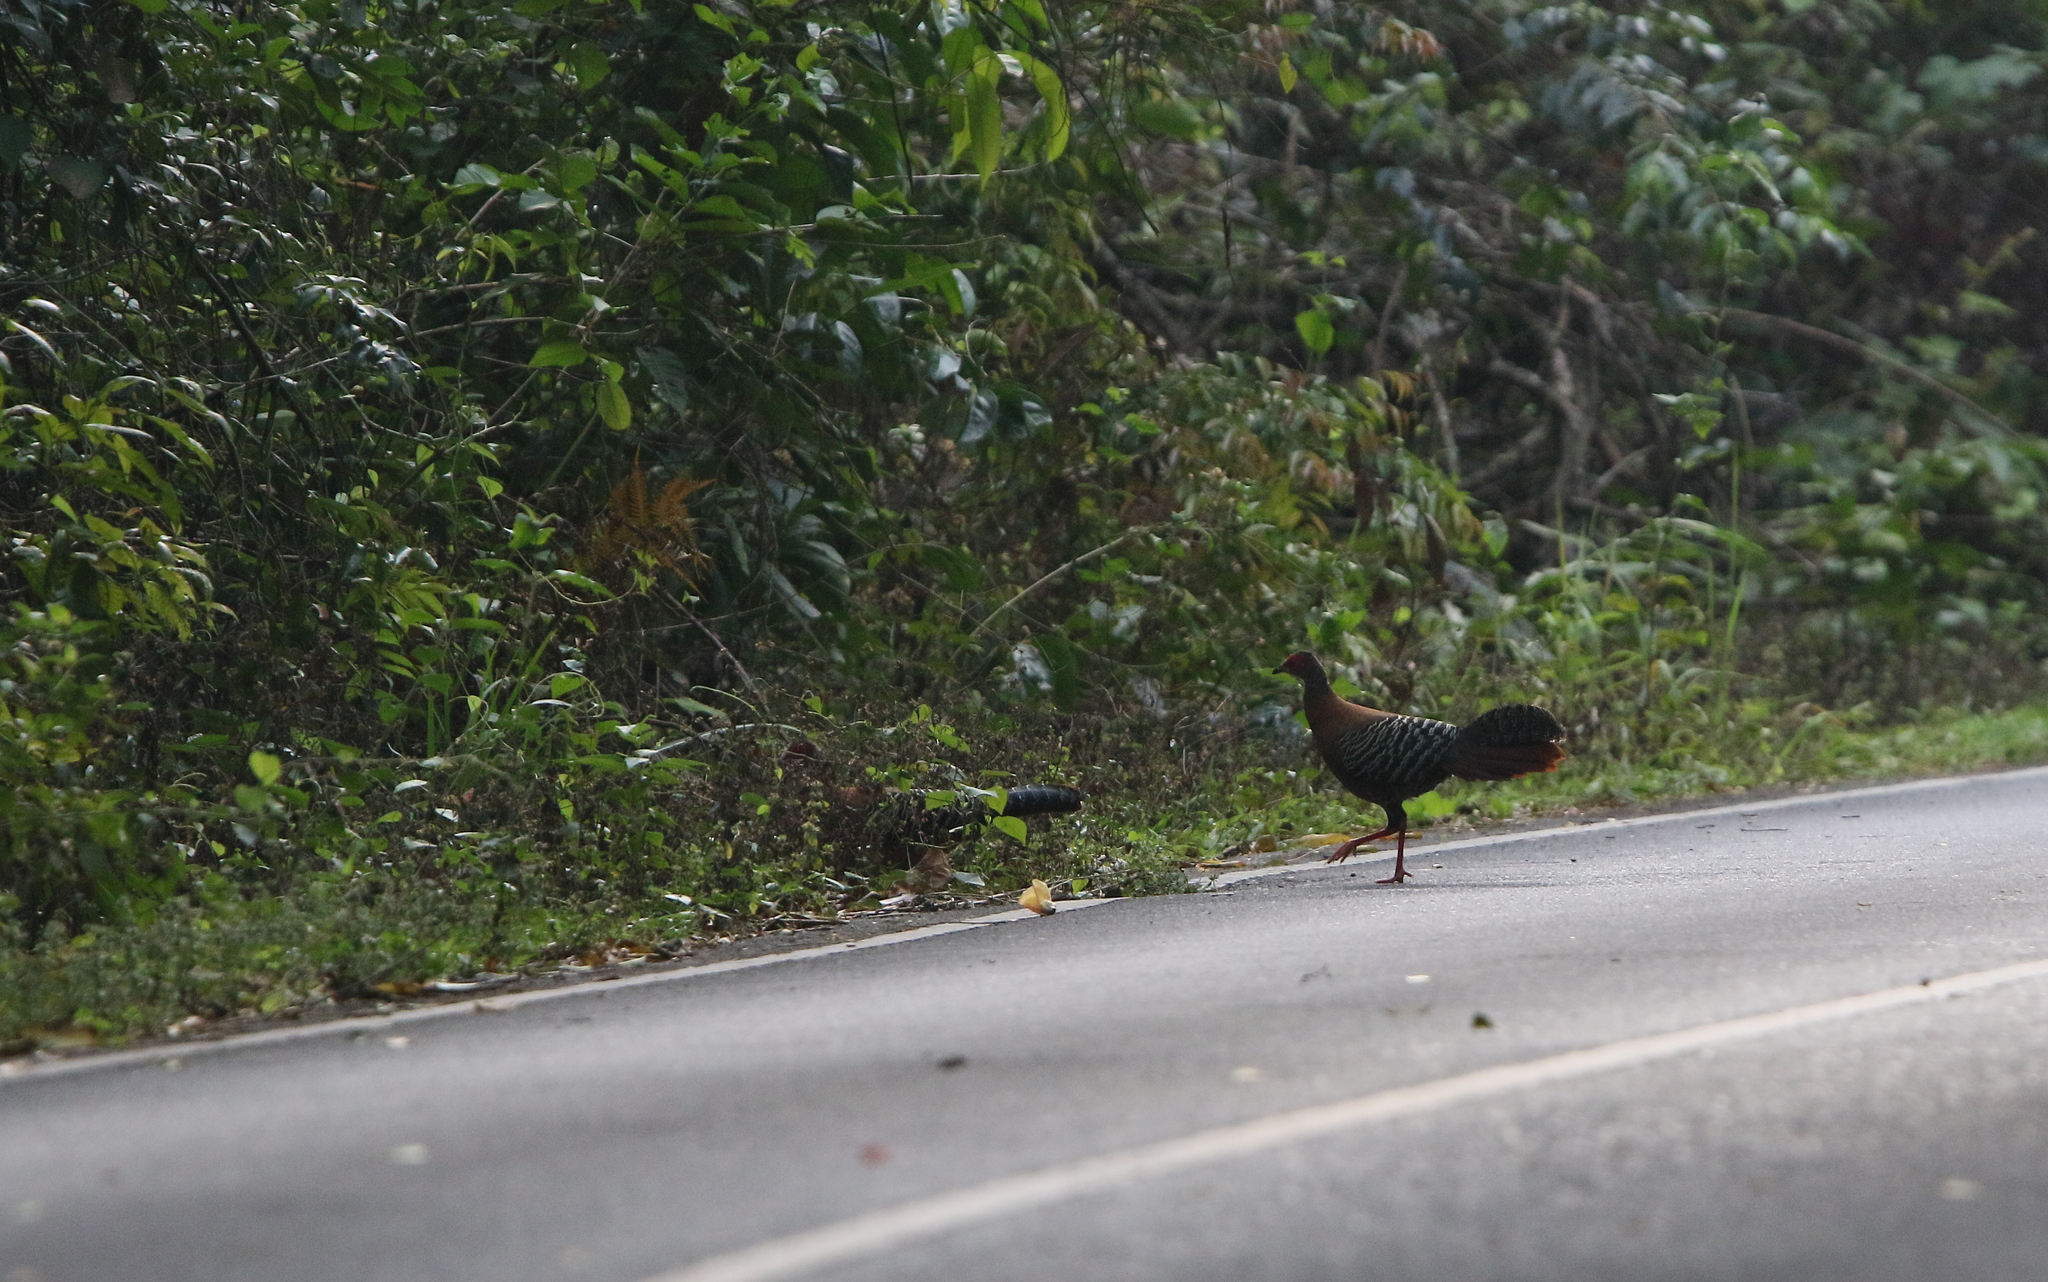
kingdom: Animalia
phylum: Chordata
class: Aves
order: Galliformes
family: Phasianidae
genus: Lophura
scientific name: Lophura diardi
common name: Siamese fireback
